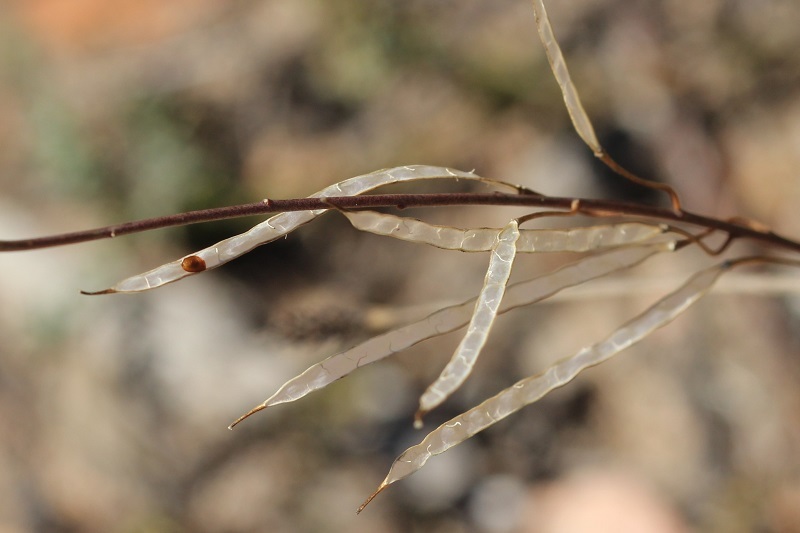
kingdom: Plantae
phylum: Tracheophyta
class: Magnoliopsida
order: Brassicales
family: Brassicaceae
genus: Heliophila
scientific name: Heliophila subulata
